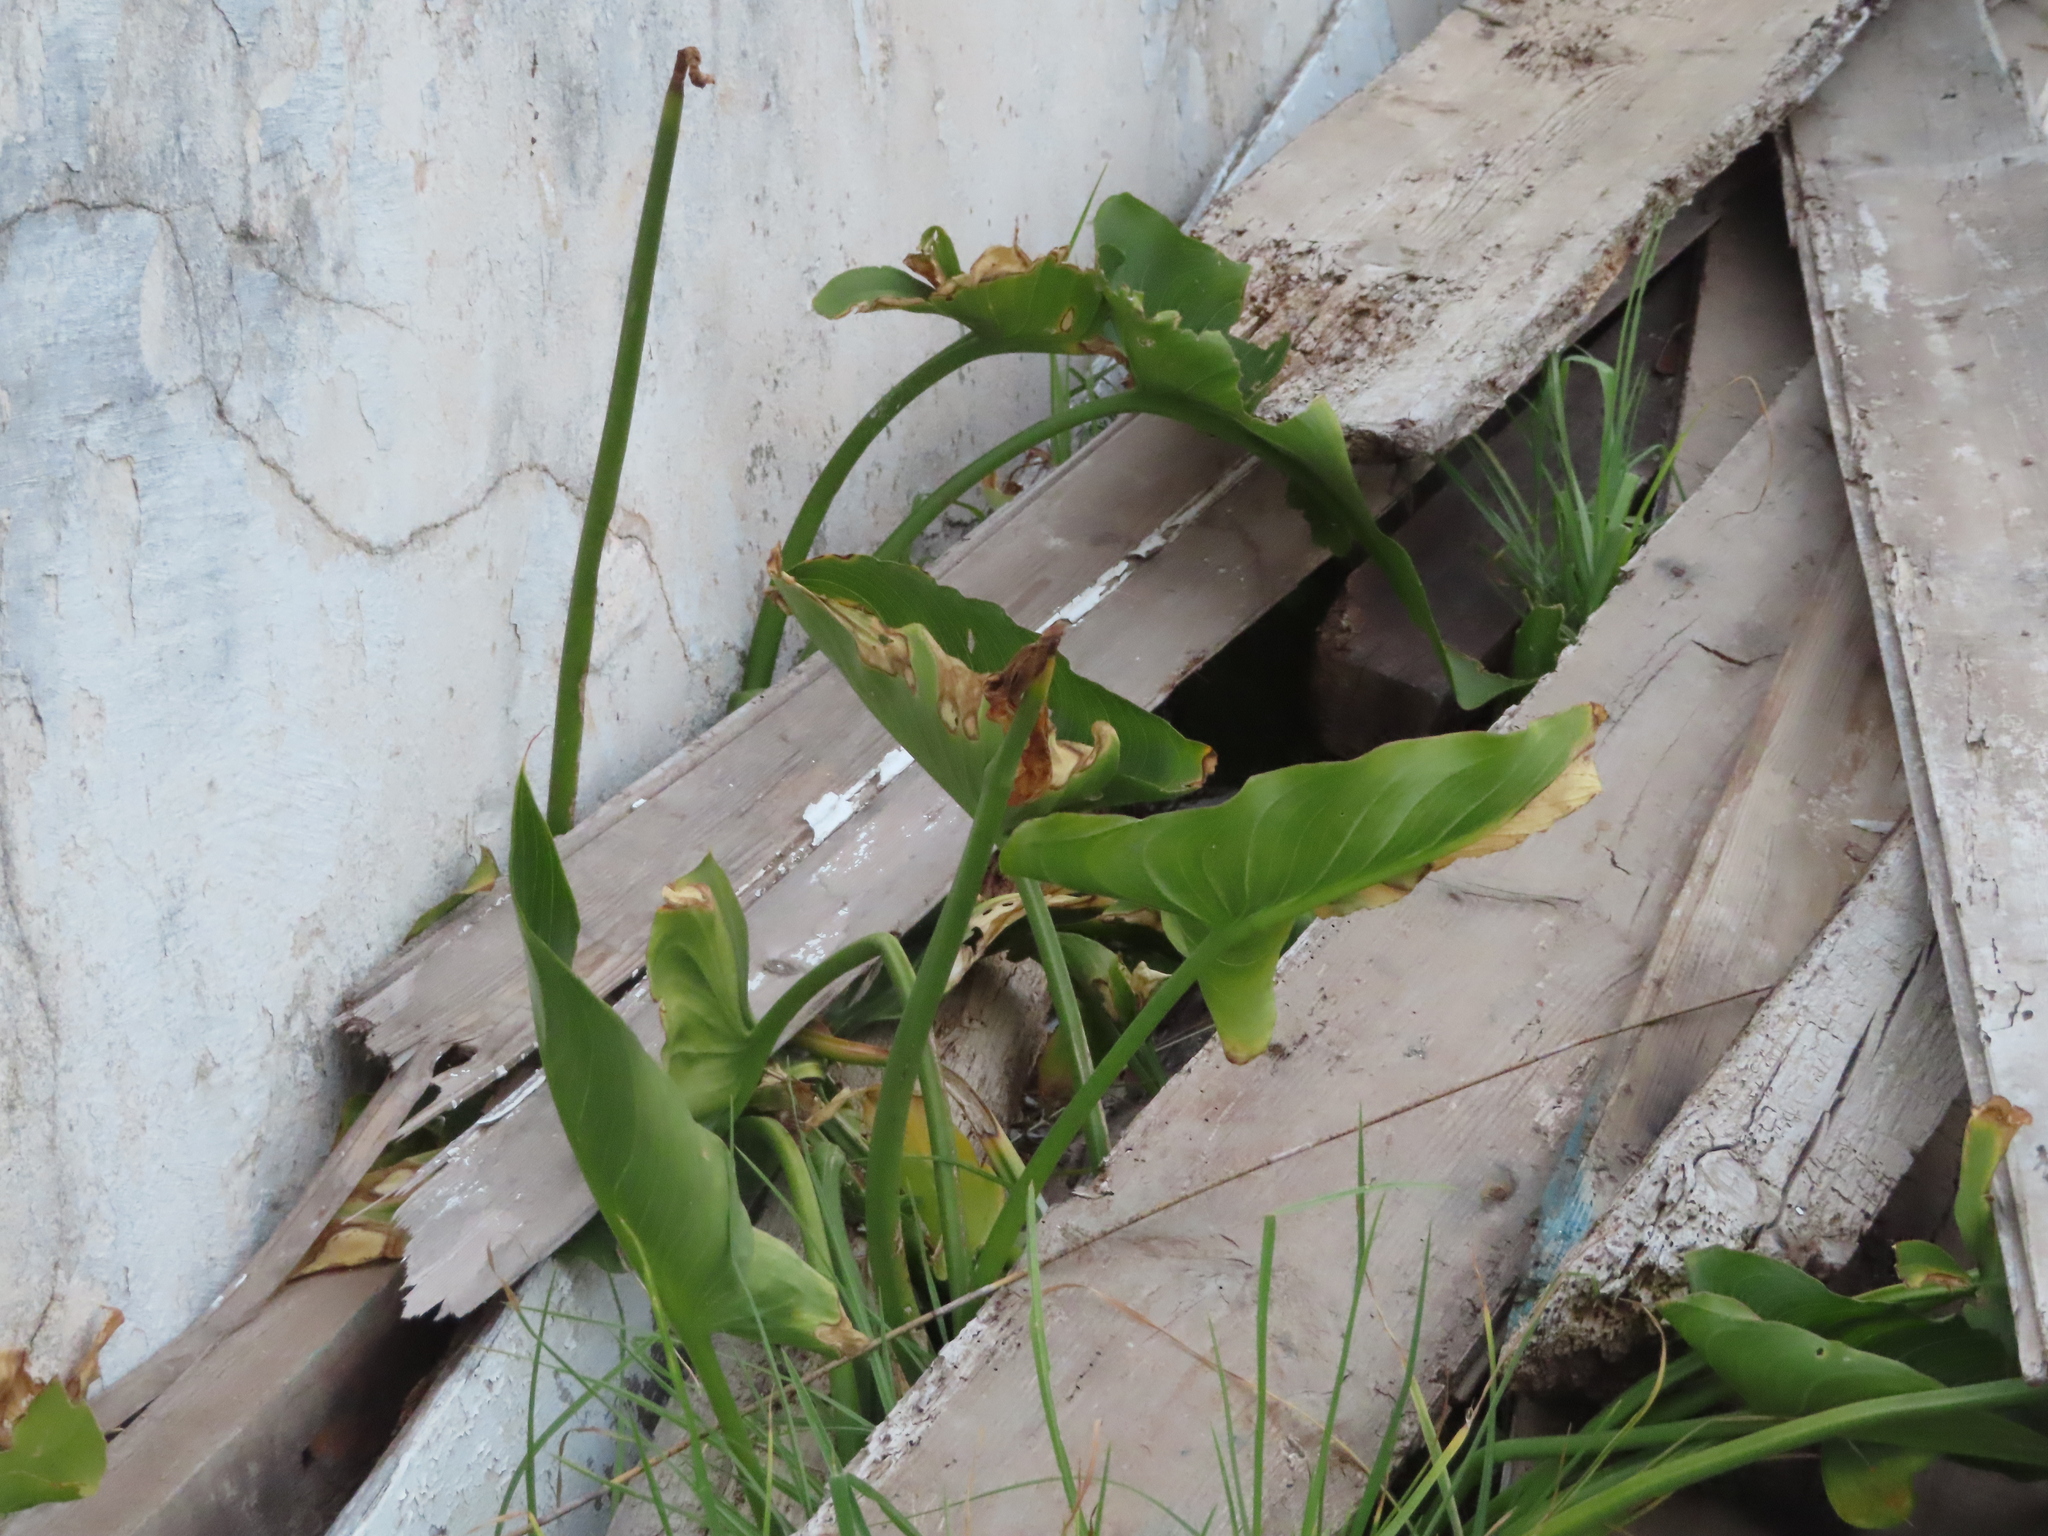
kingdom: Plantae
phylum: Tracheophyta
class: Liliopsida
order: Alismatales
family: Araceae
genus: Zantedeschia
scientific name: Zantedeschia aethiopica
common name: Altar-lily
